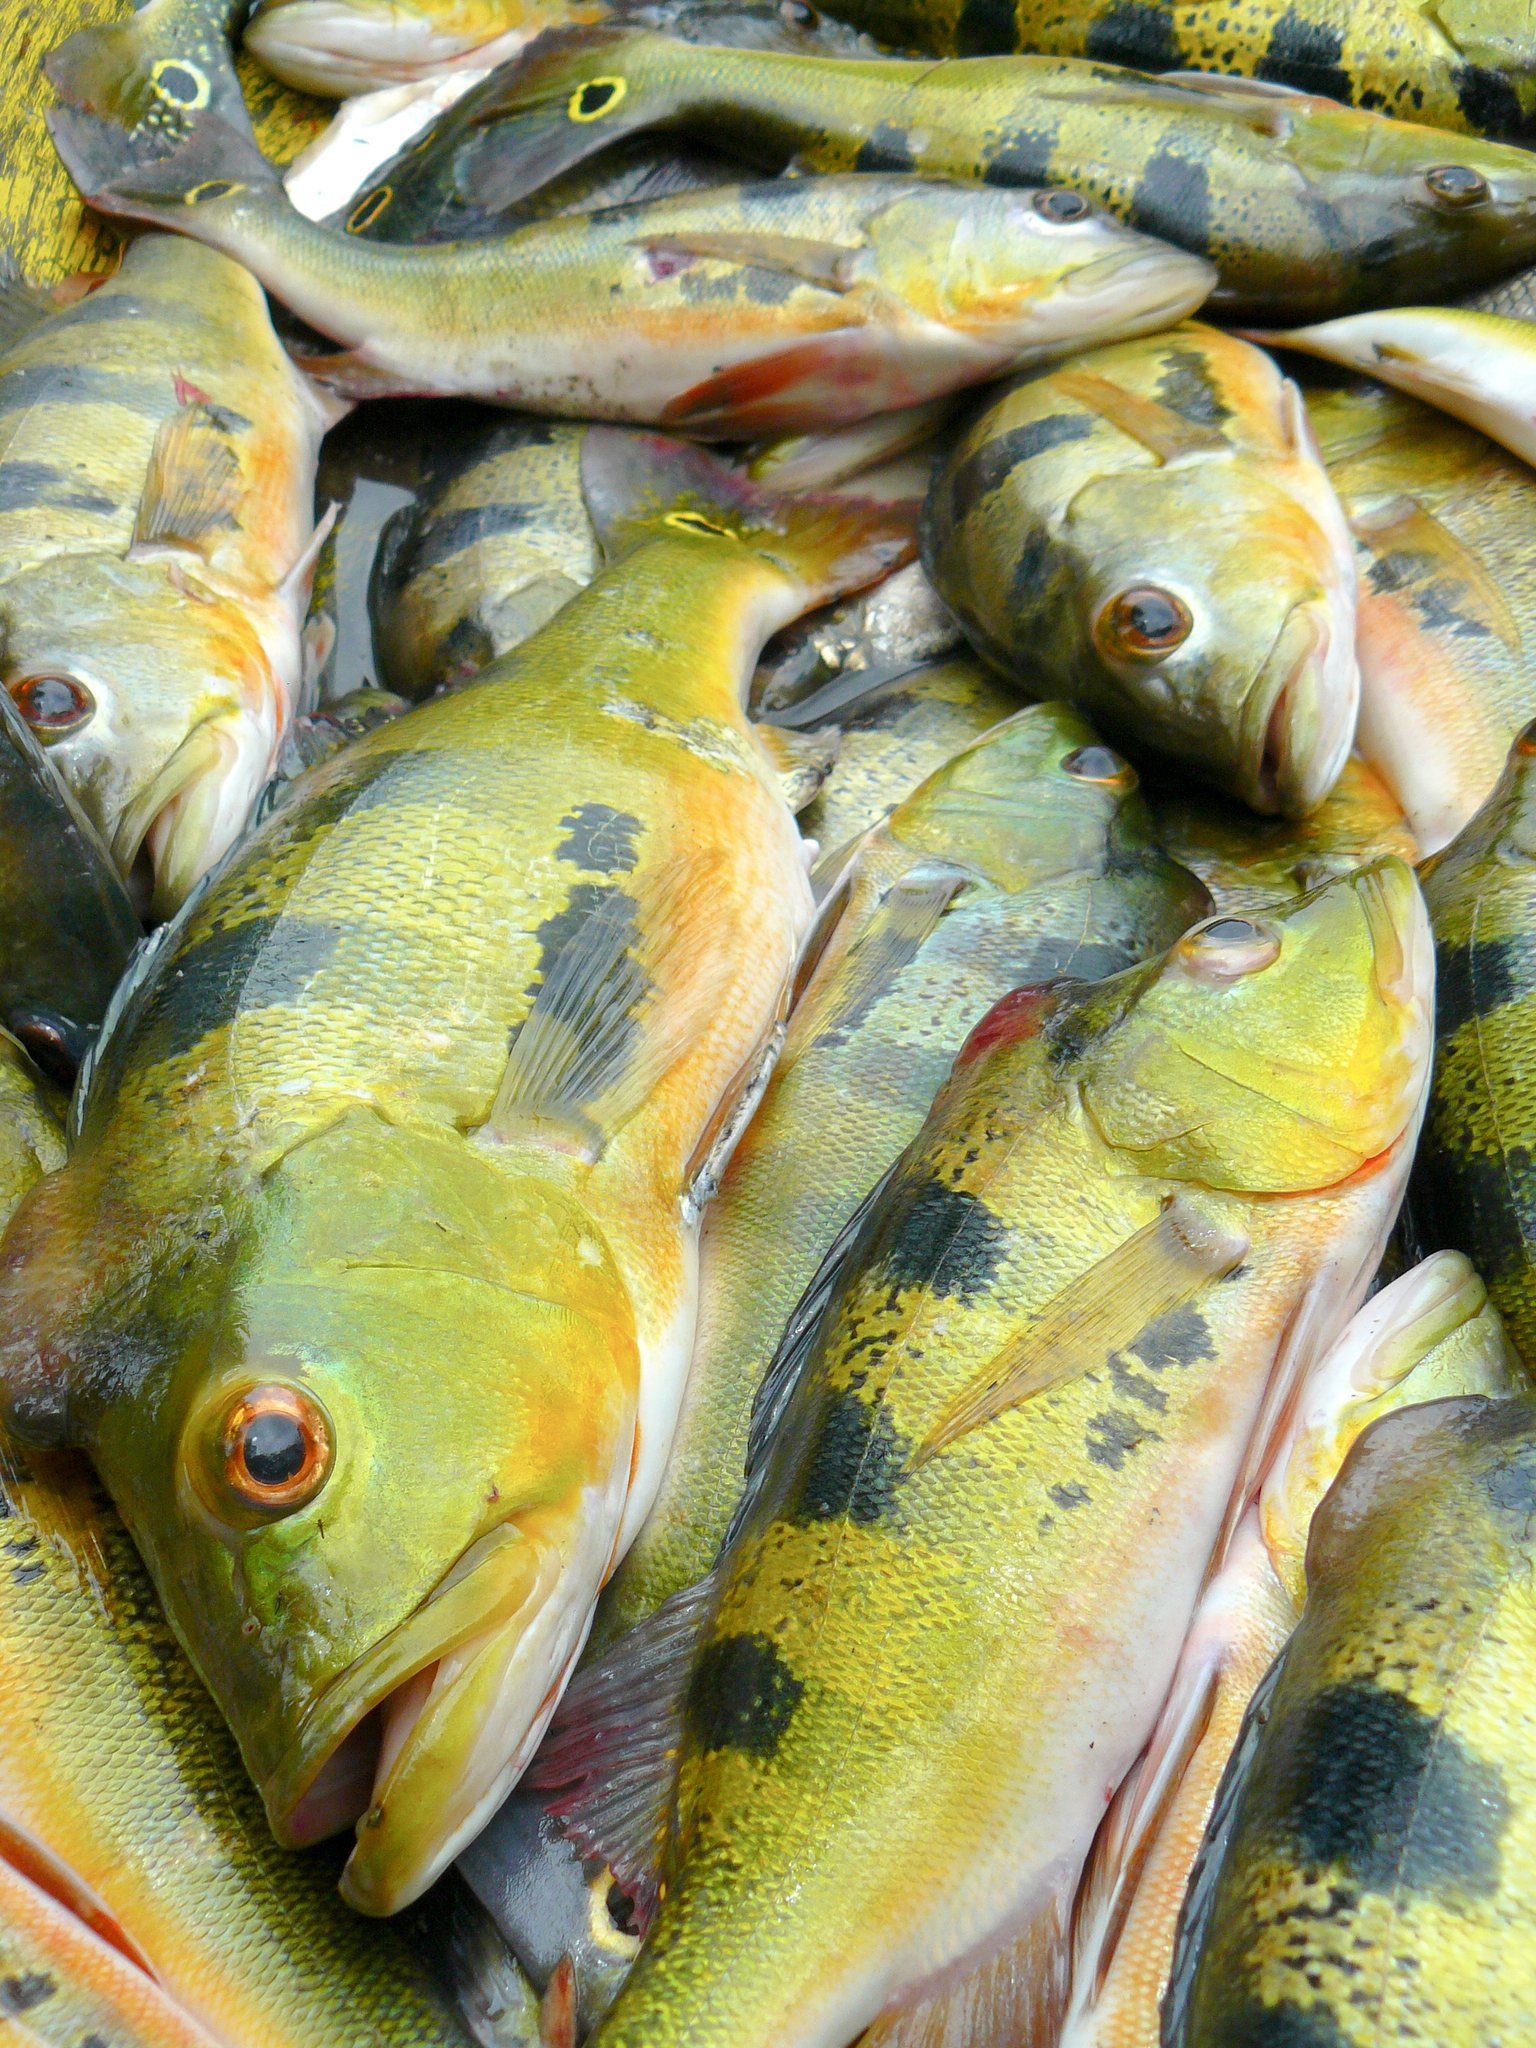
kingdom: Animalia
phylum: Chordata
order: Perciformes
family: Cichlidae
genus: Cichla
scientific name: Cichla ocellaris
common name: Peacock cichlid
